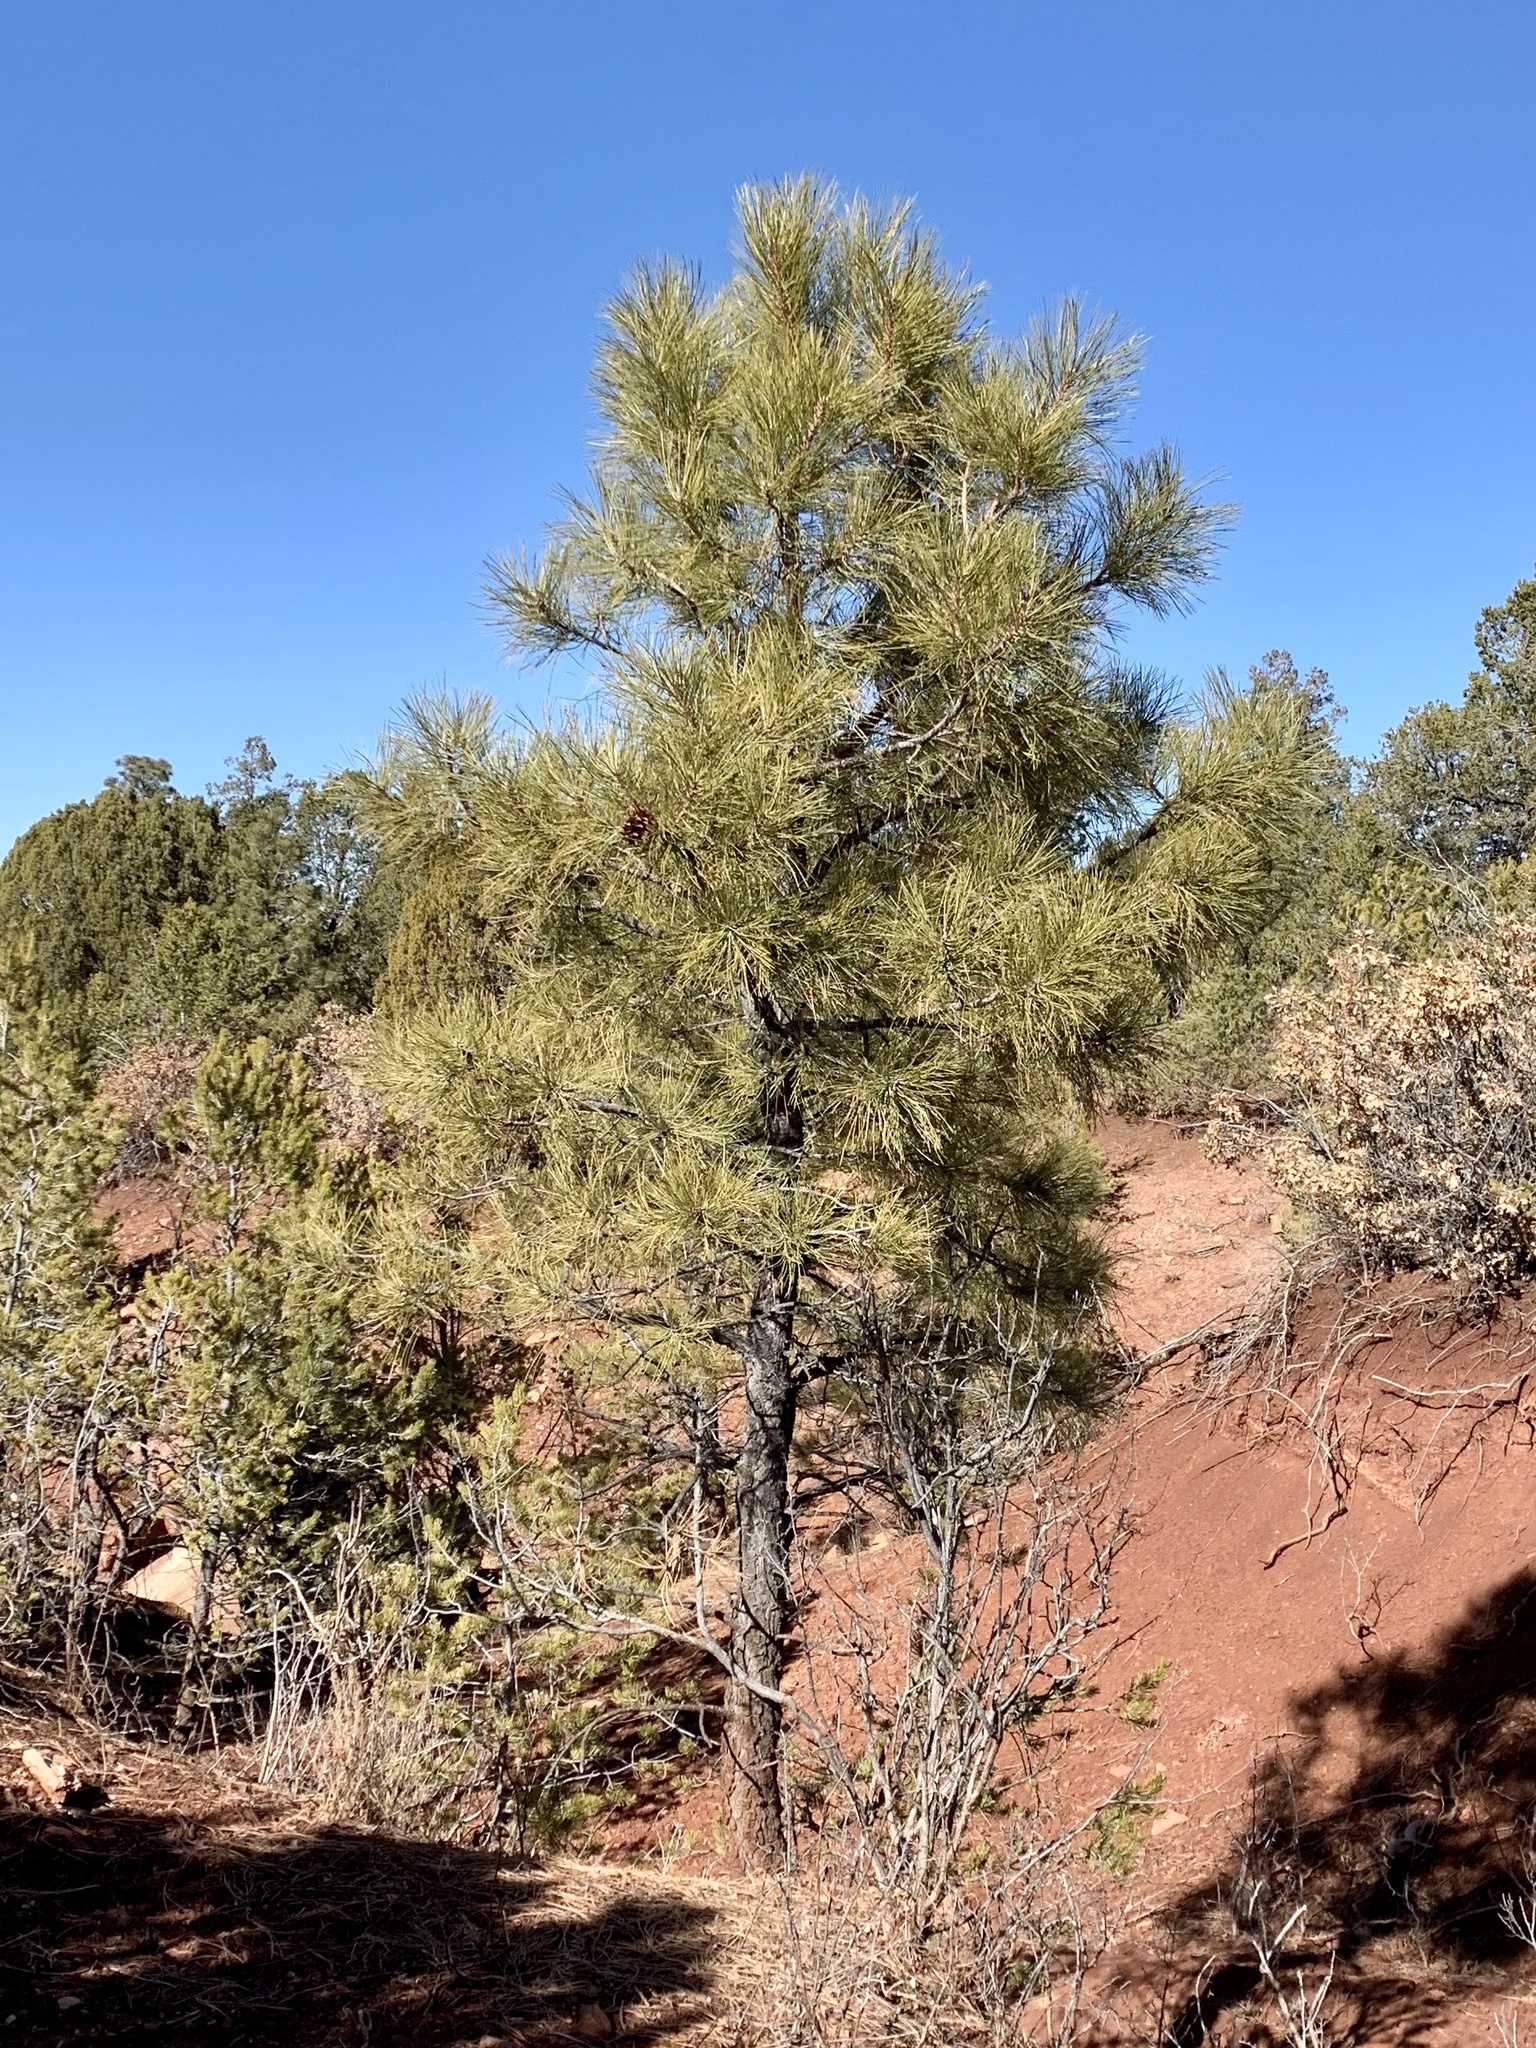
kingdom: Plantae
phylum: Tracheophyta
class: Pinopsida
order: Pinales
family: Pinaceae
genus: Pinus
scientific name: Pinus ponderosa
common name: Western yellow-pine
